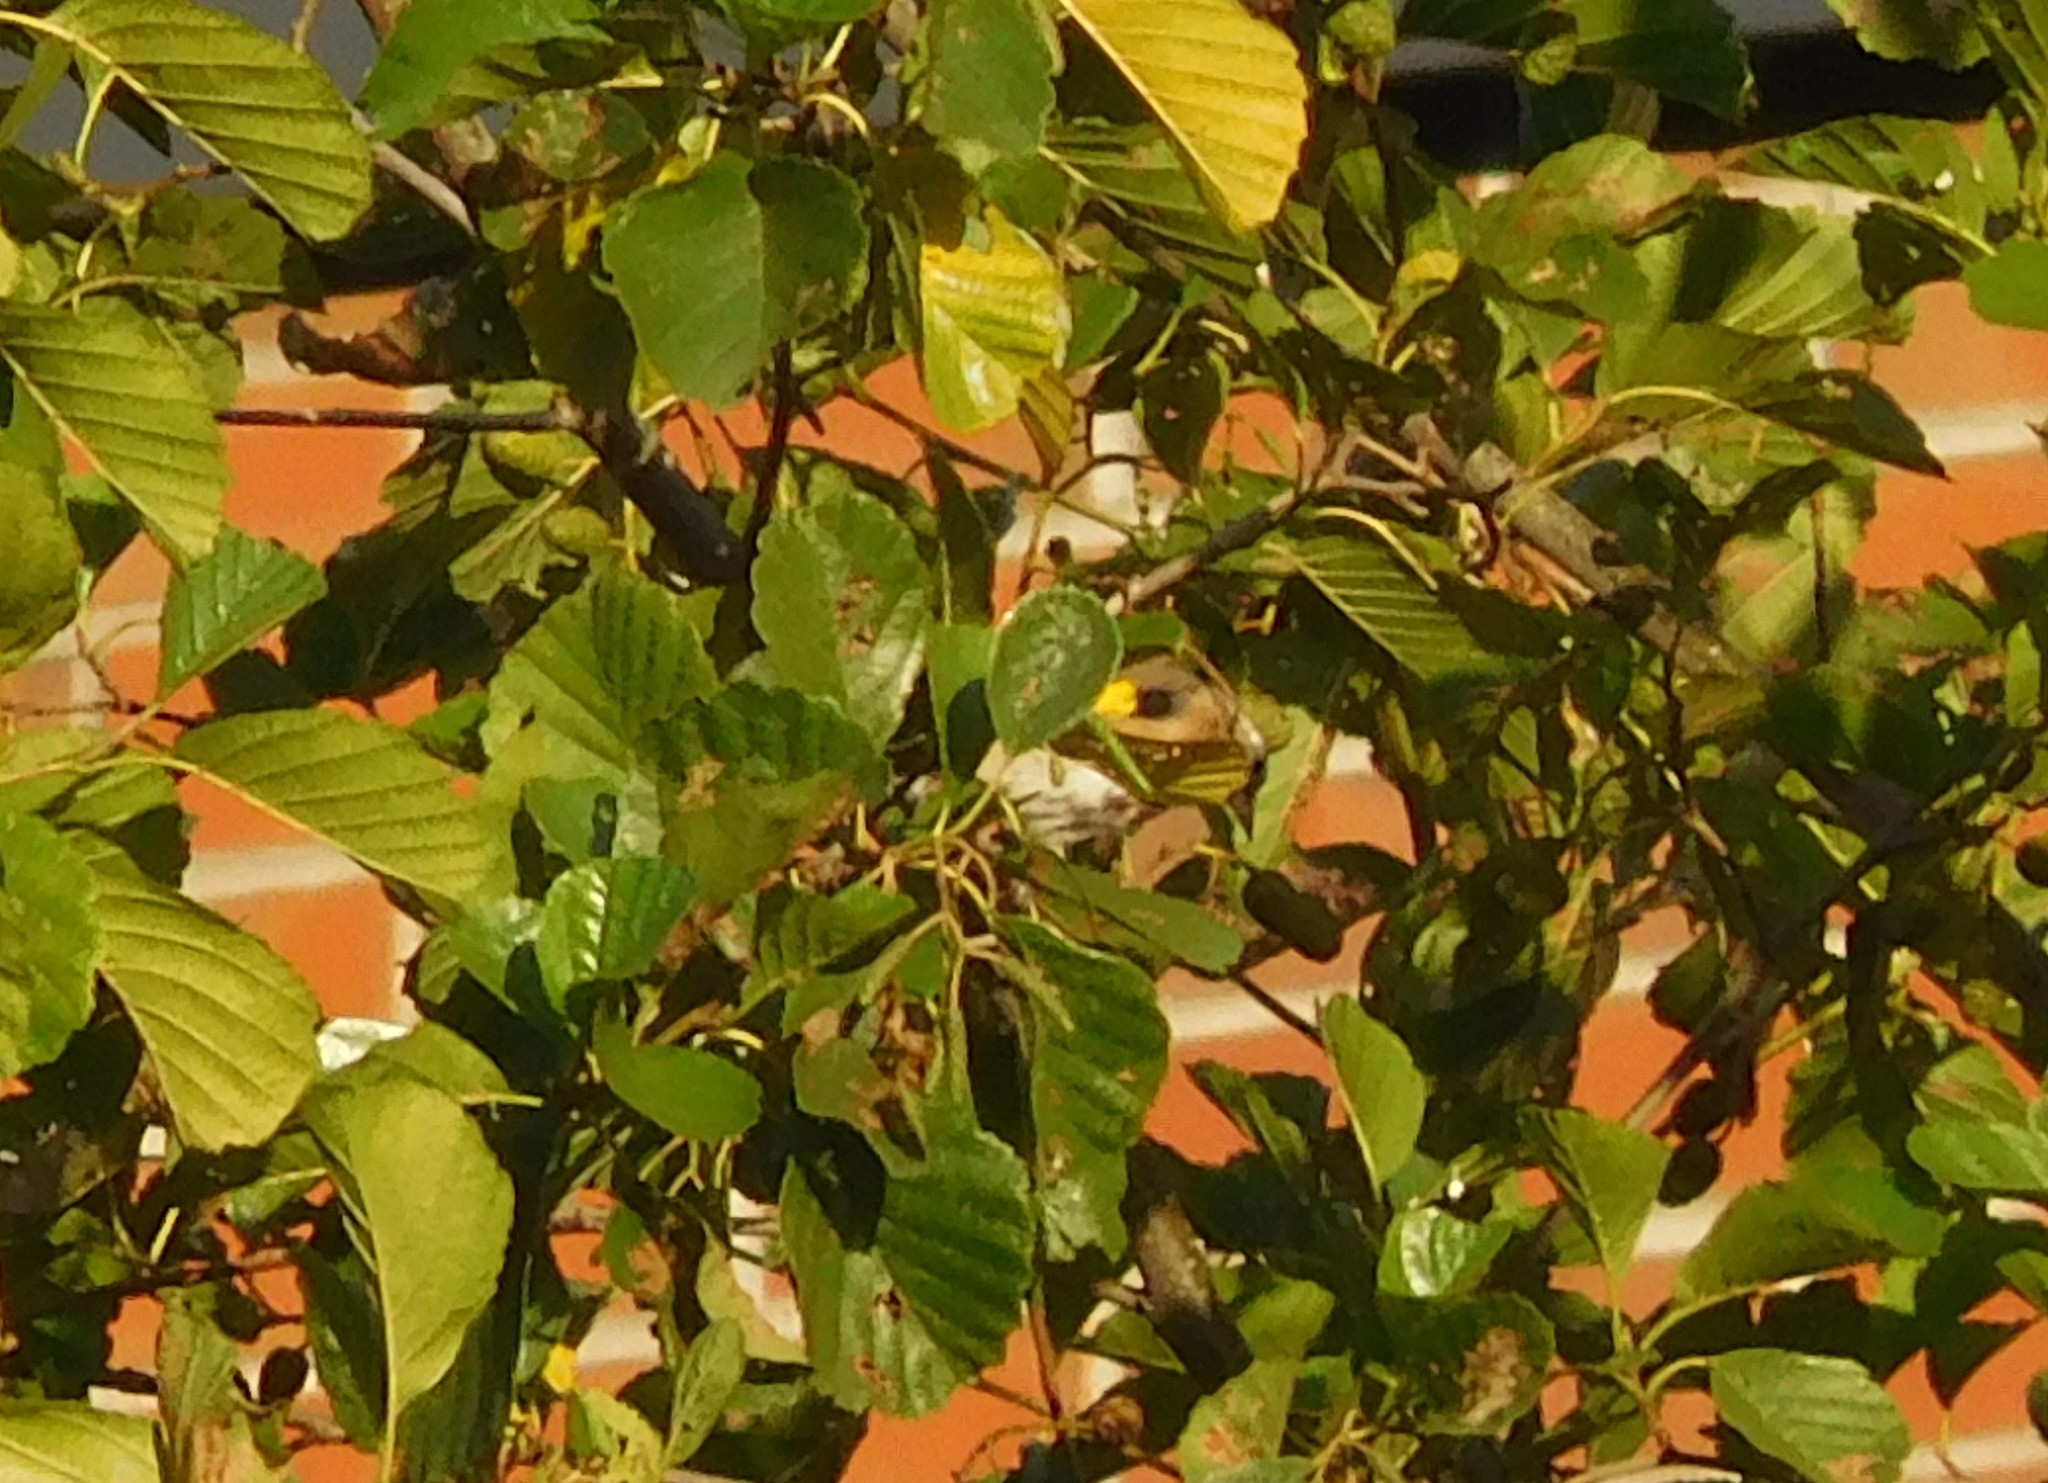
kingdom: Animalia
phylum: Chordata
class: Aves
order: Passeriformes
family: Fringillidae
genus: Carduelis
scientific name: Carduelis carduelis
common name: European goldfinch
